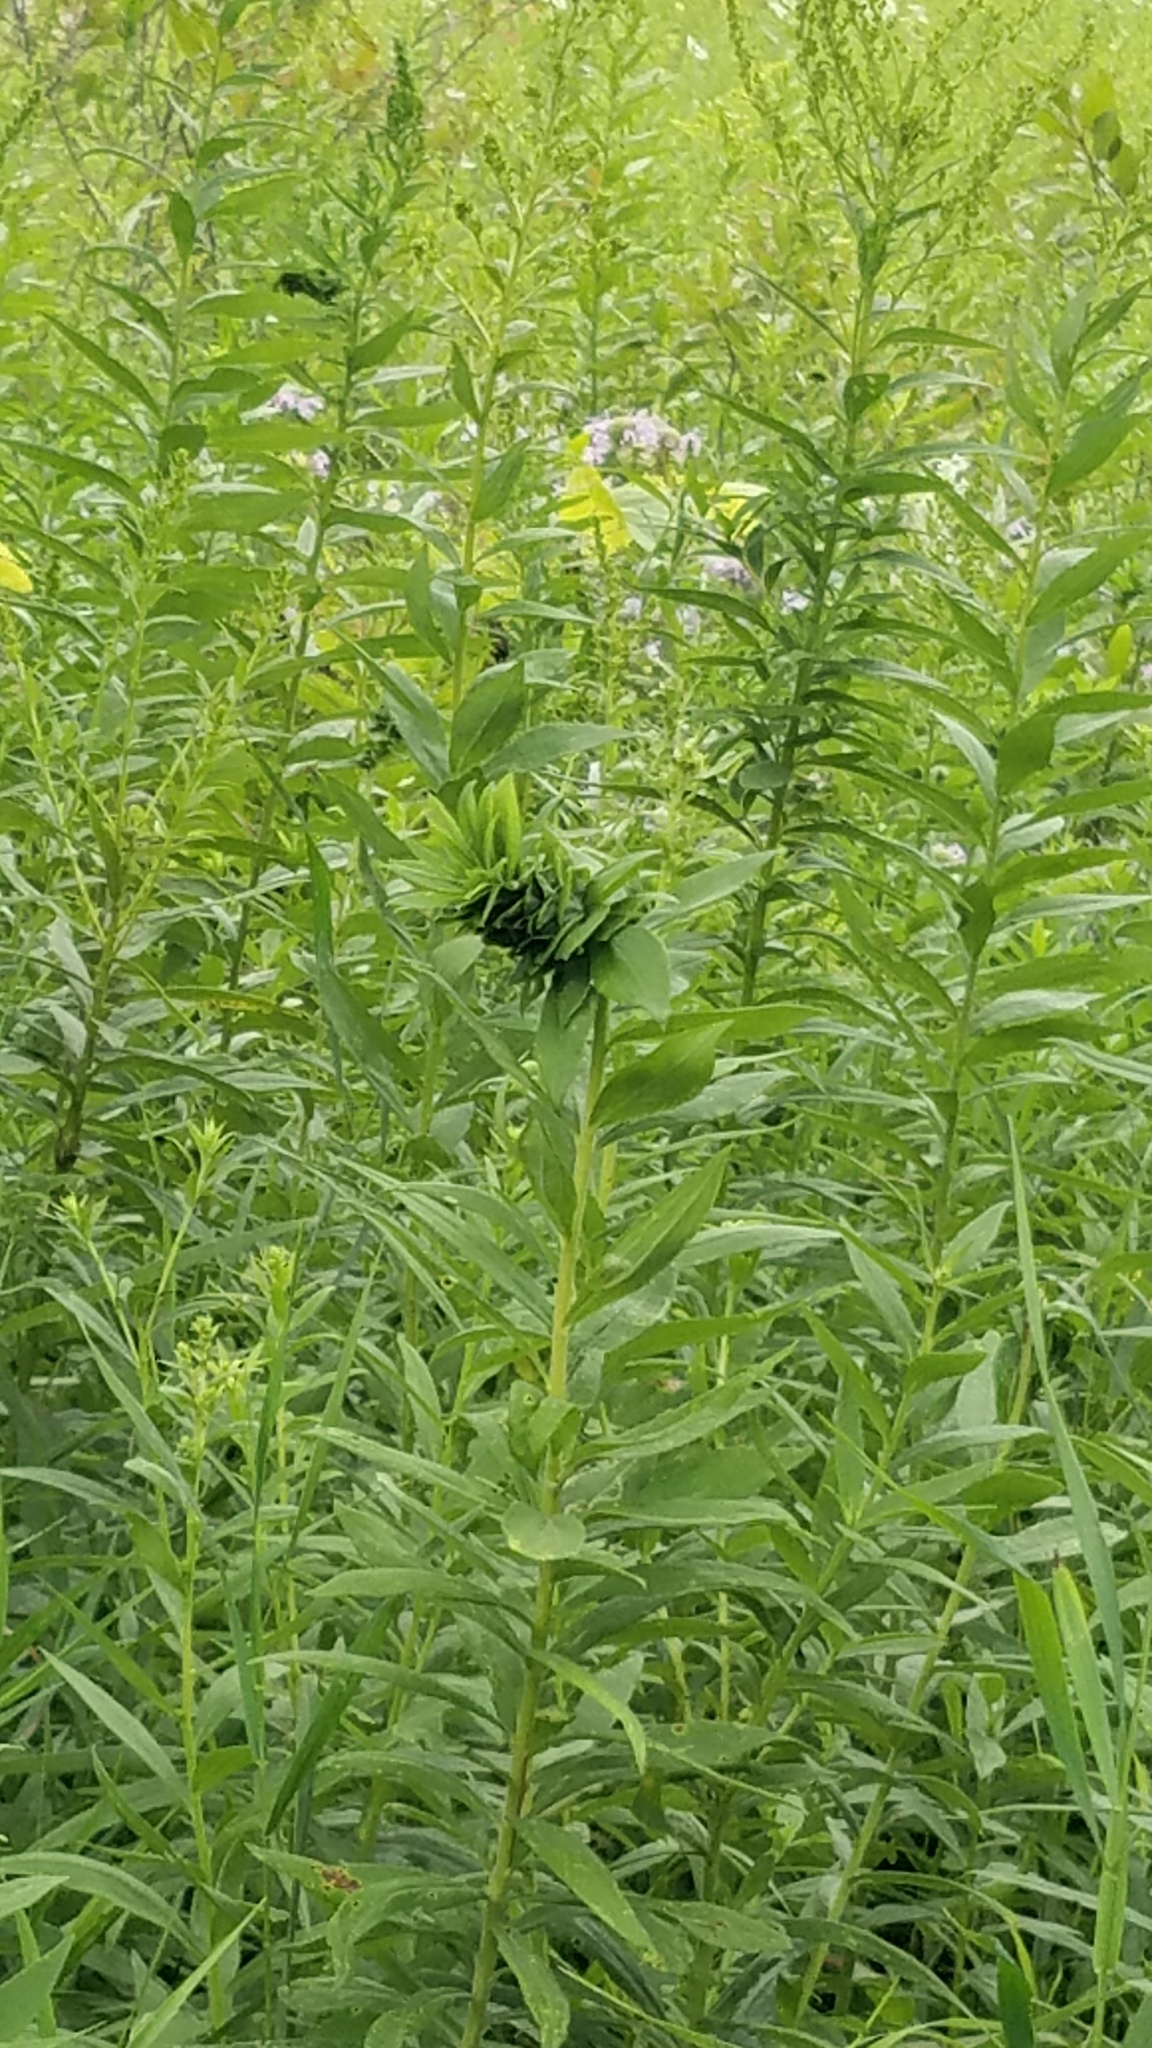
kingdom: Animalia
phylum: Arthropoda
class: Insecta
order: Diptera
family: Cecidomyiidae
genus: Rhopalomyia
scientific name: Rhopalomyia solidaginis
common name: Goldenrod bunch gall midge
